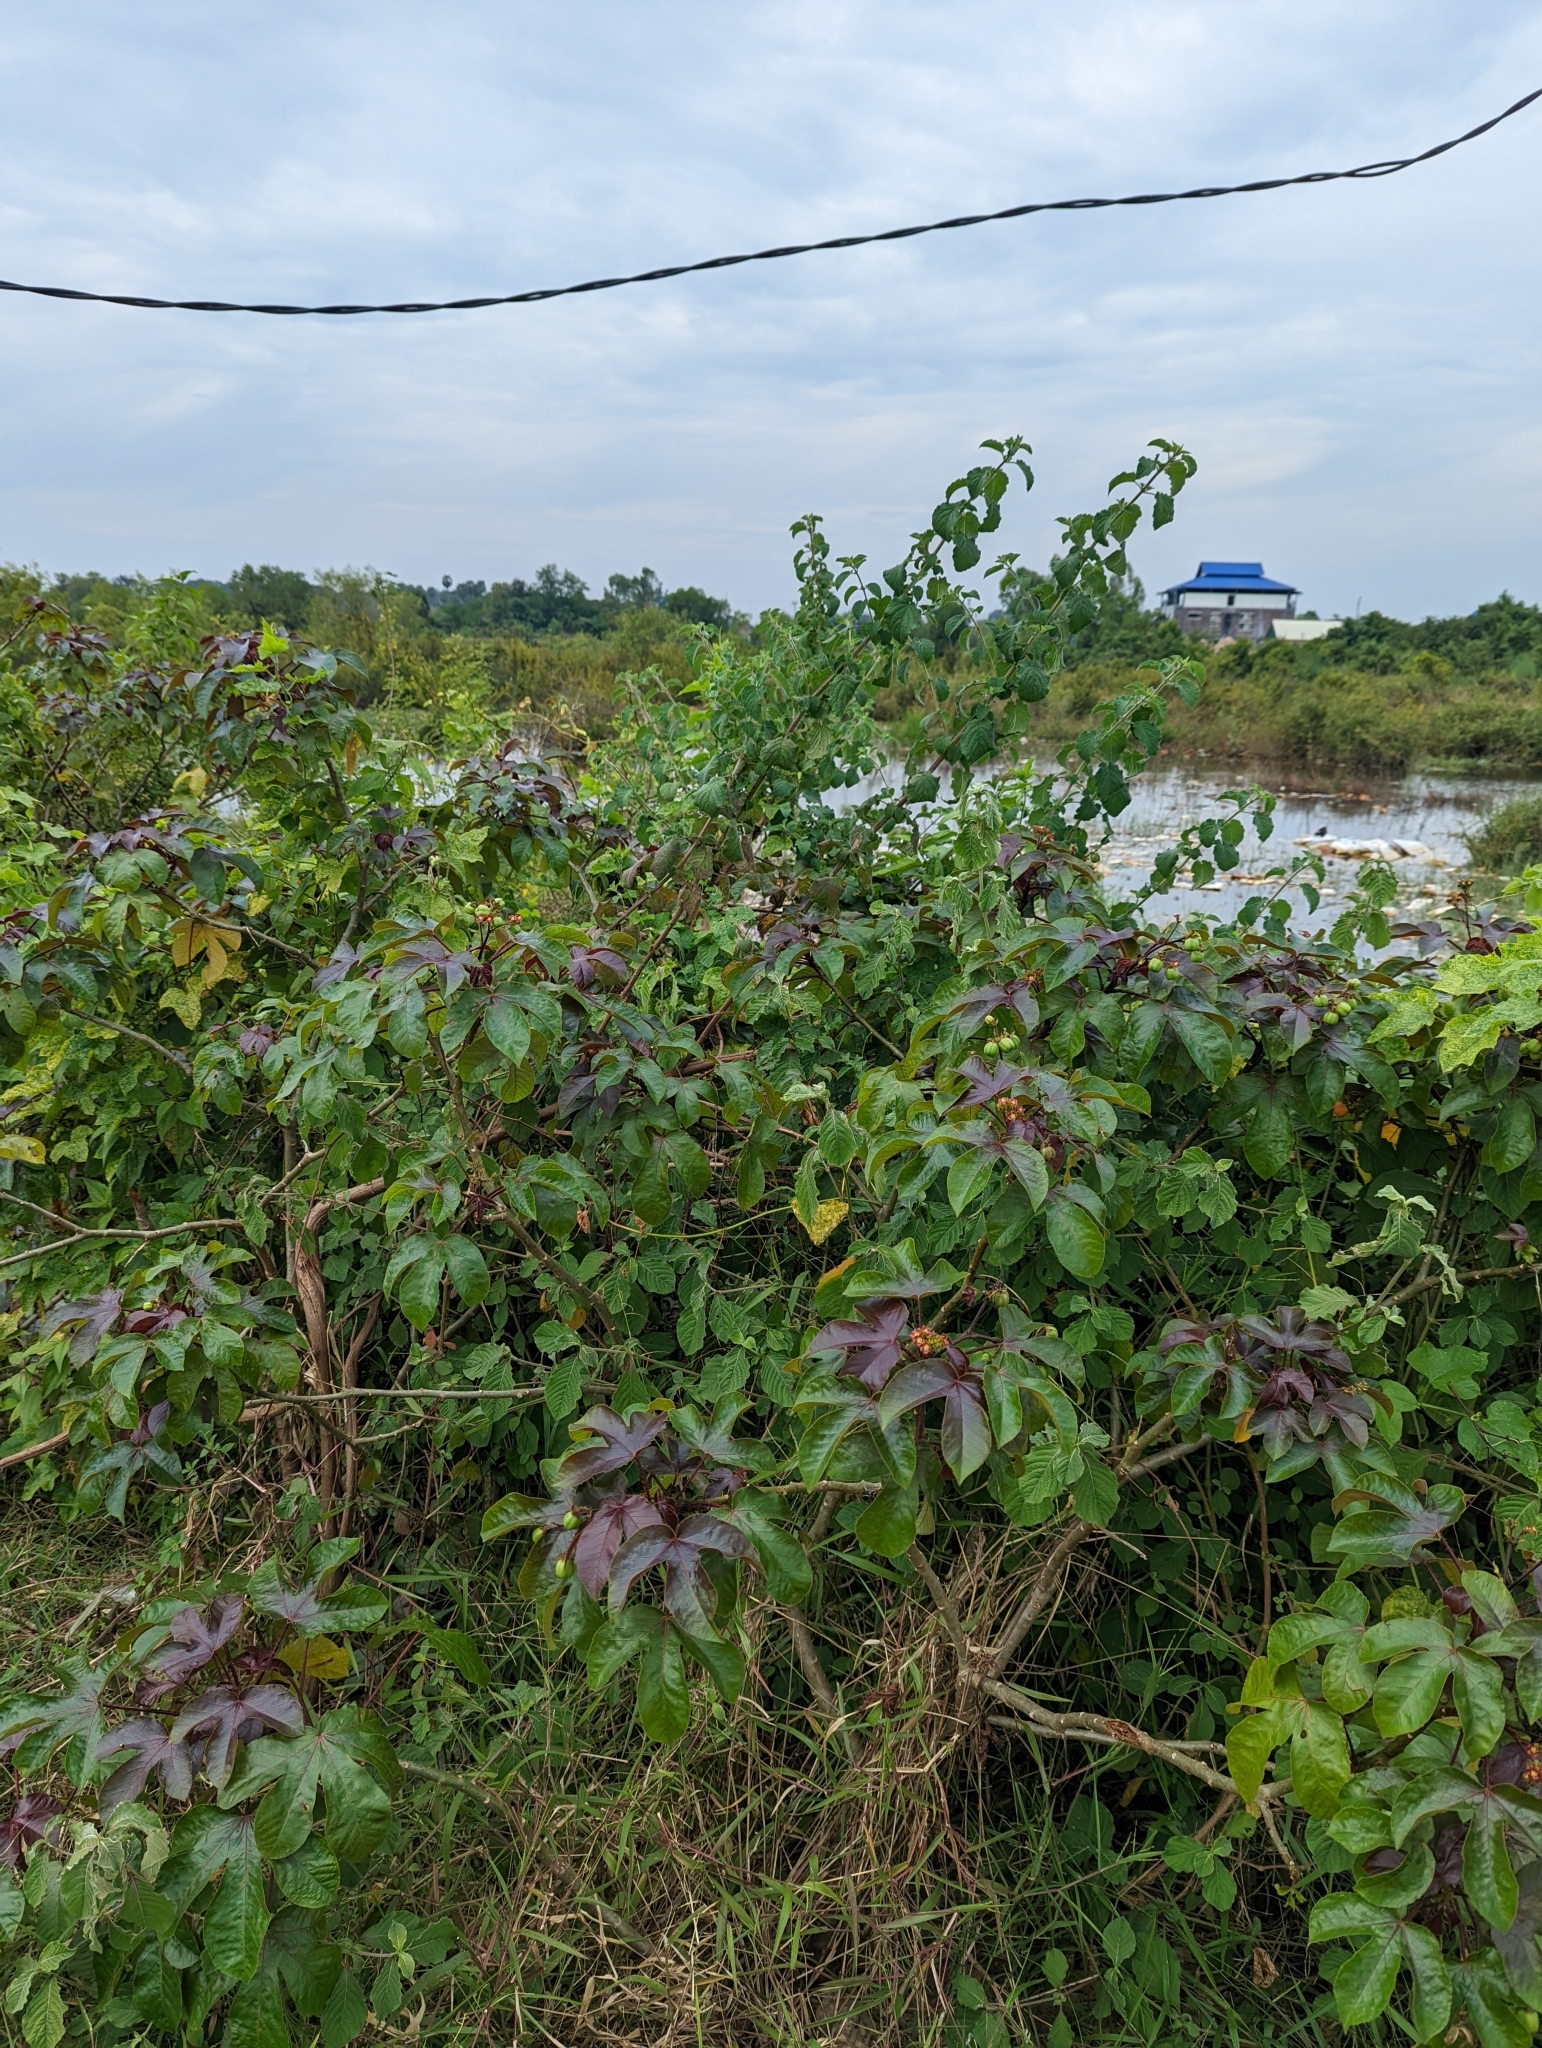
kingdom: Plantae
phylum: Tracheophyta
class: Magnoliopsida
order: Malpighiales
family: Euphorbiaceae
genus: Jatropha
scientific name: Jatropha gossypiifolia
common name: Bellyache bush
